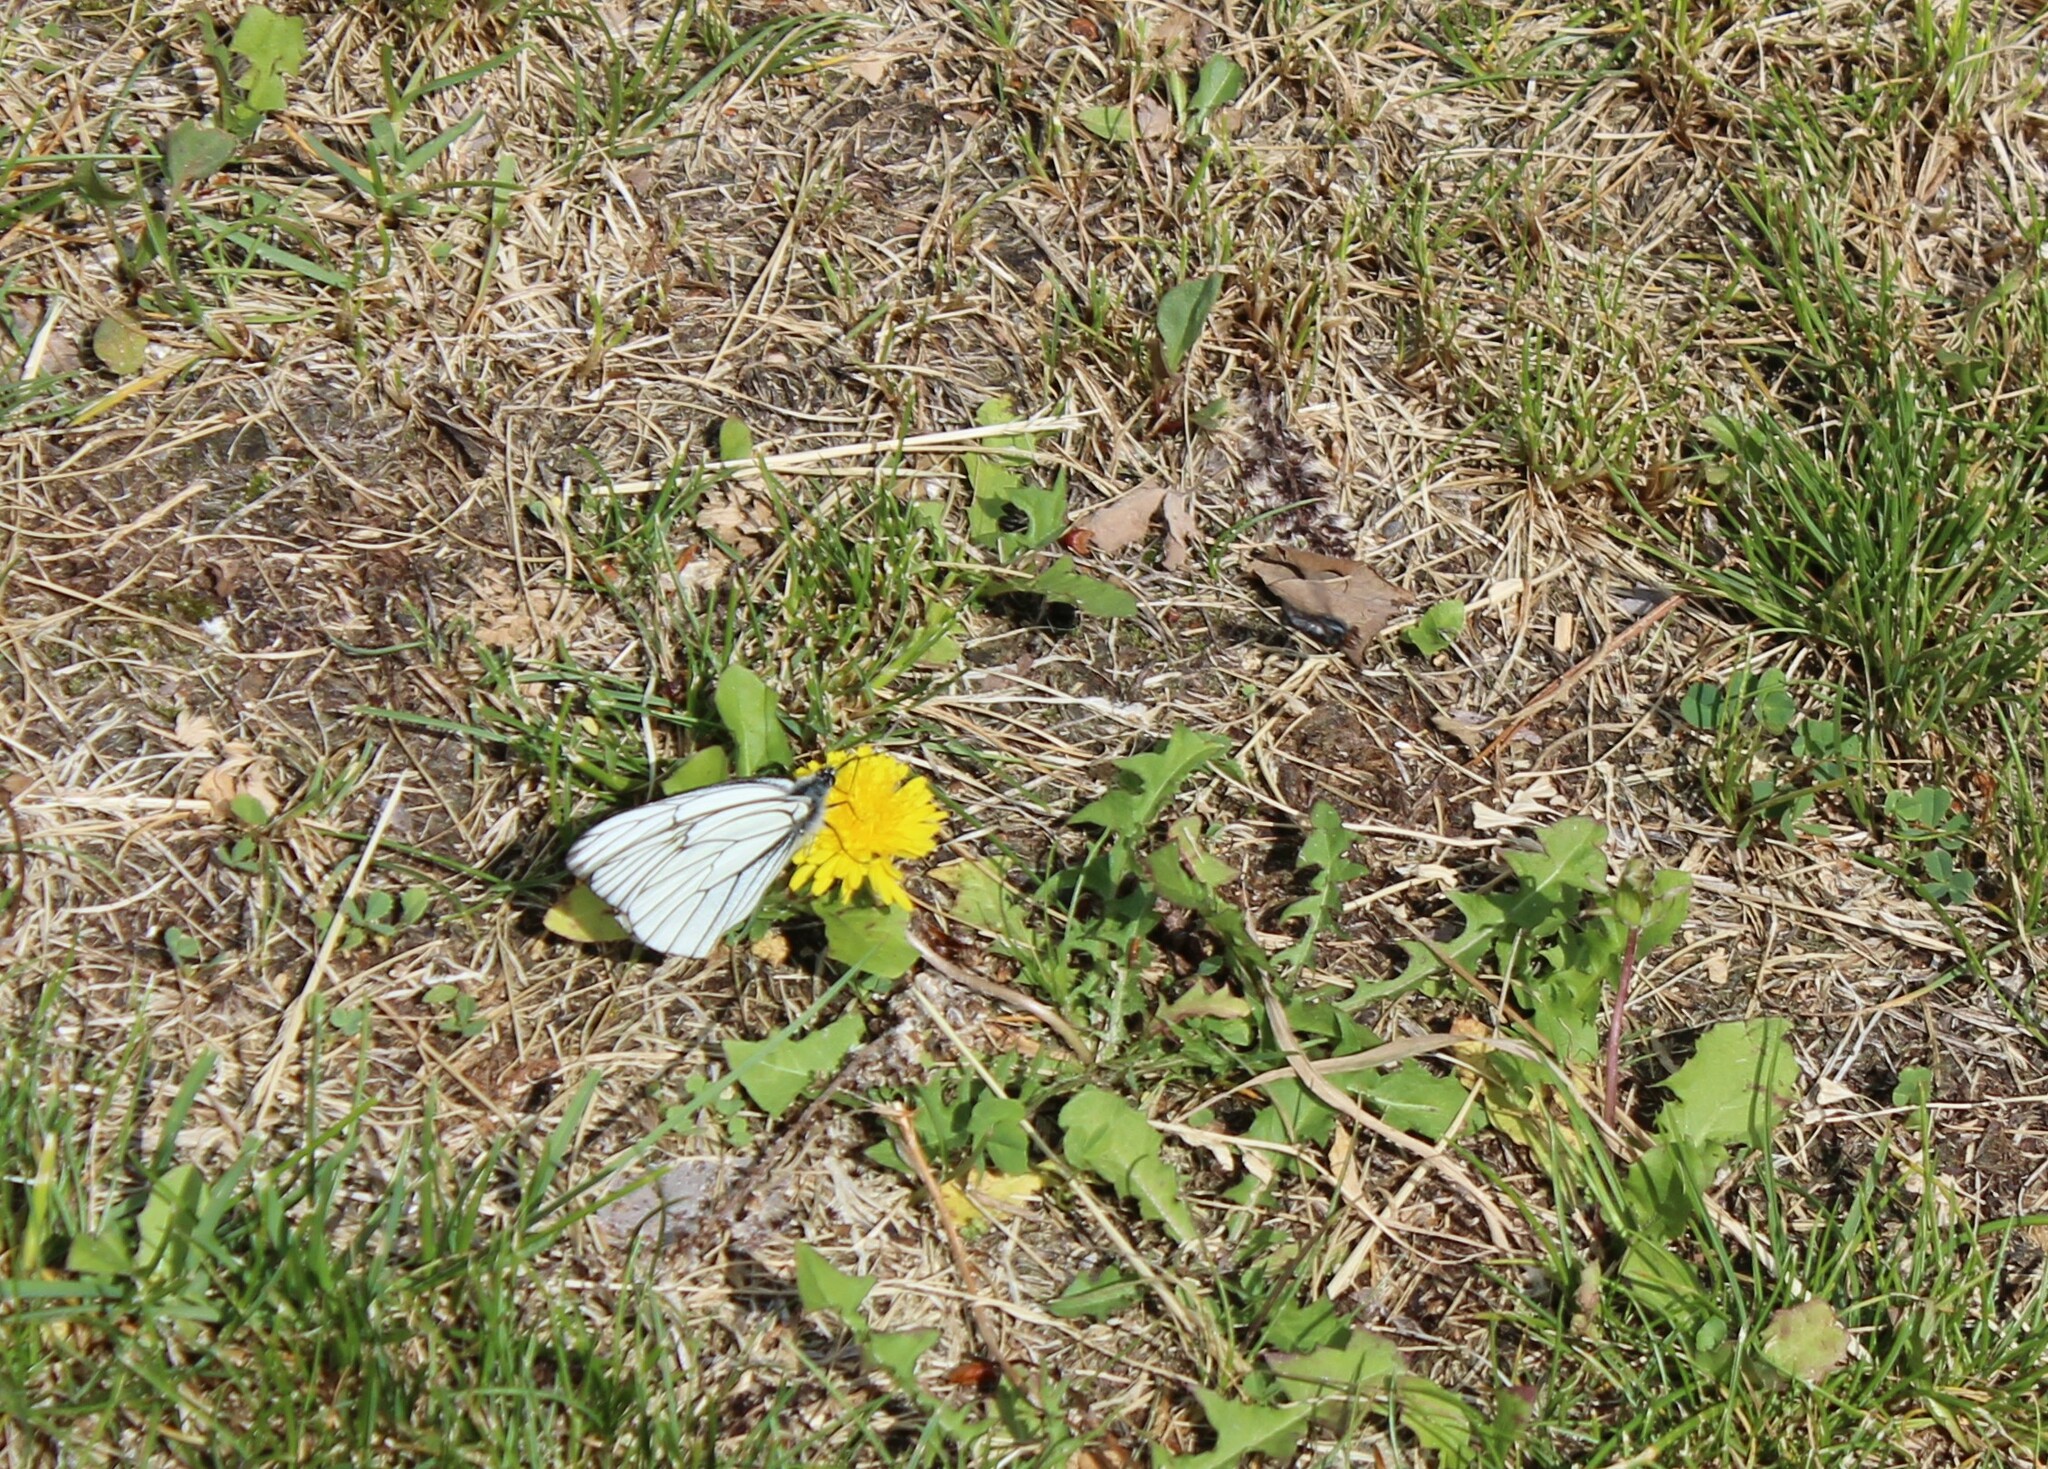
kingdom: Animalia
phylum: Arthropoda
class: Insecta
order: Lepidoptera
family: Pieridae
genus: Aporia
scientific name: Aporia crataegi
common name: Black-veined white
